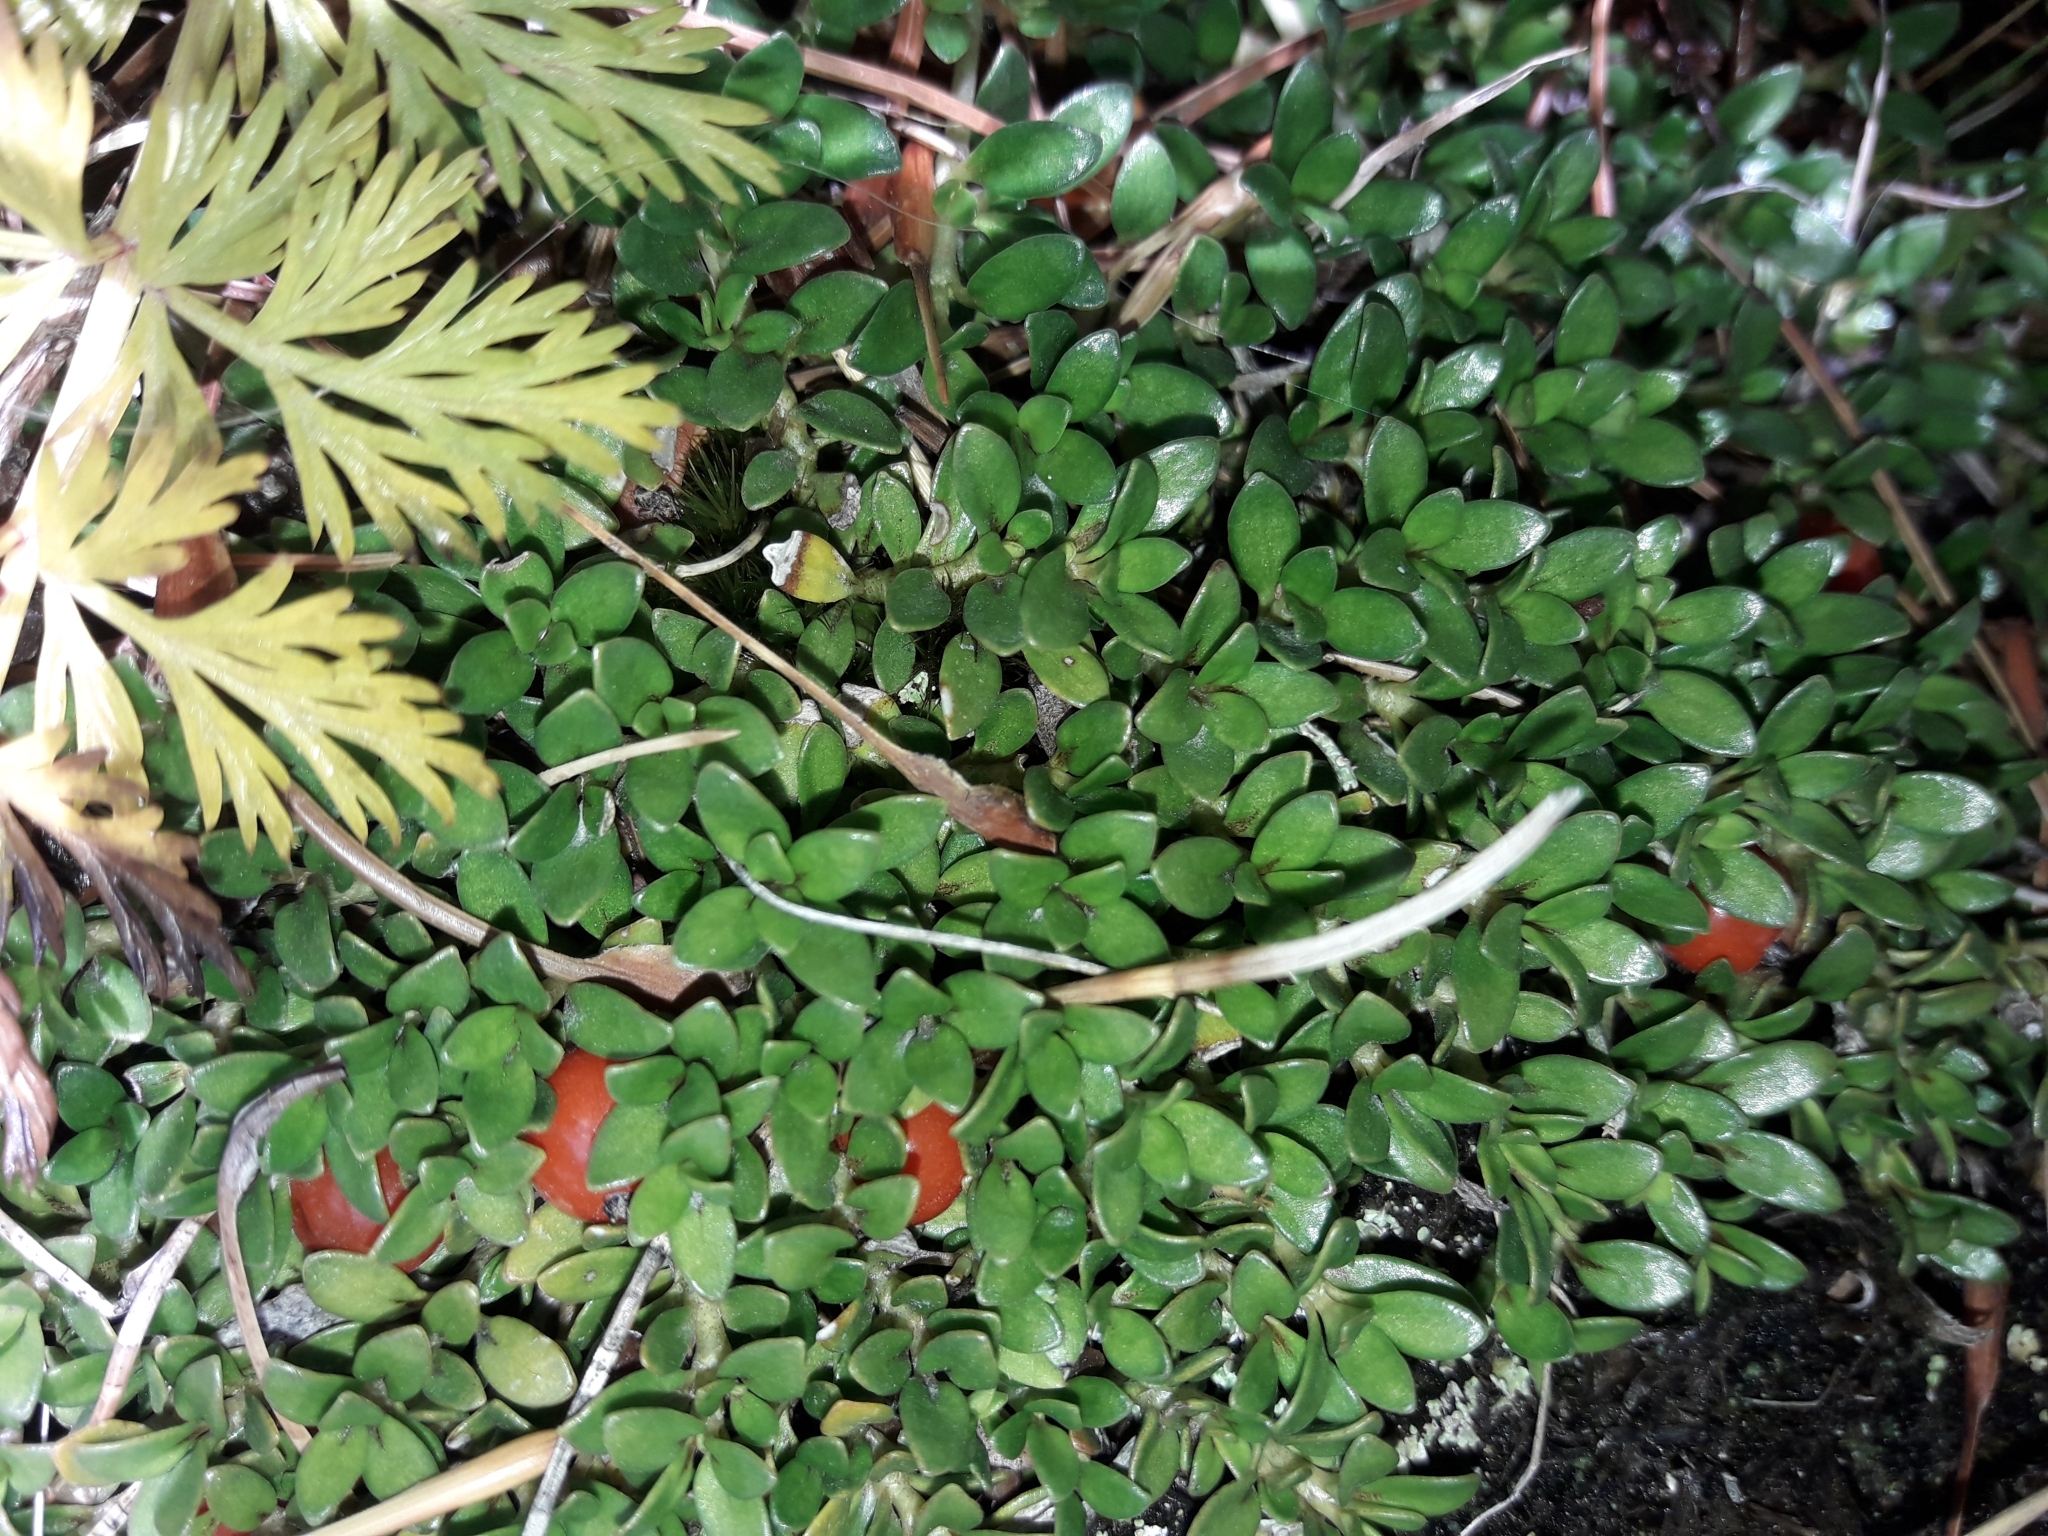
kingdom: Plantae
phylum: Tracheophyta
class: Magnoliopsida
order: Gentianales
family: Rubiaceae
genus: Coprosma
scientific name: Coprosma perpusilla
